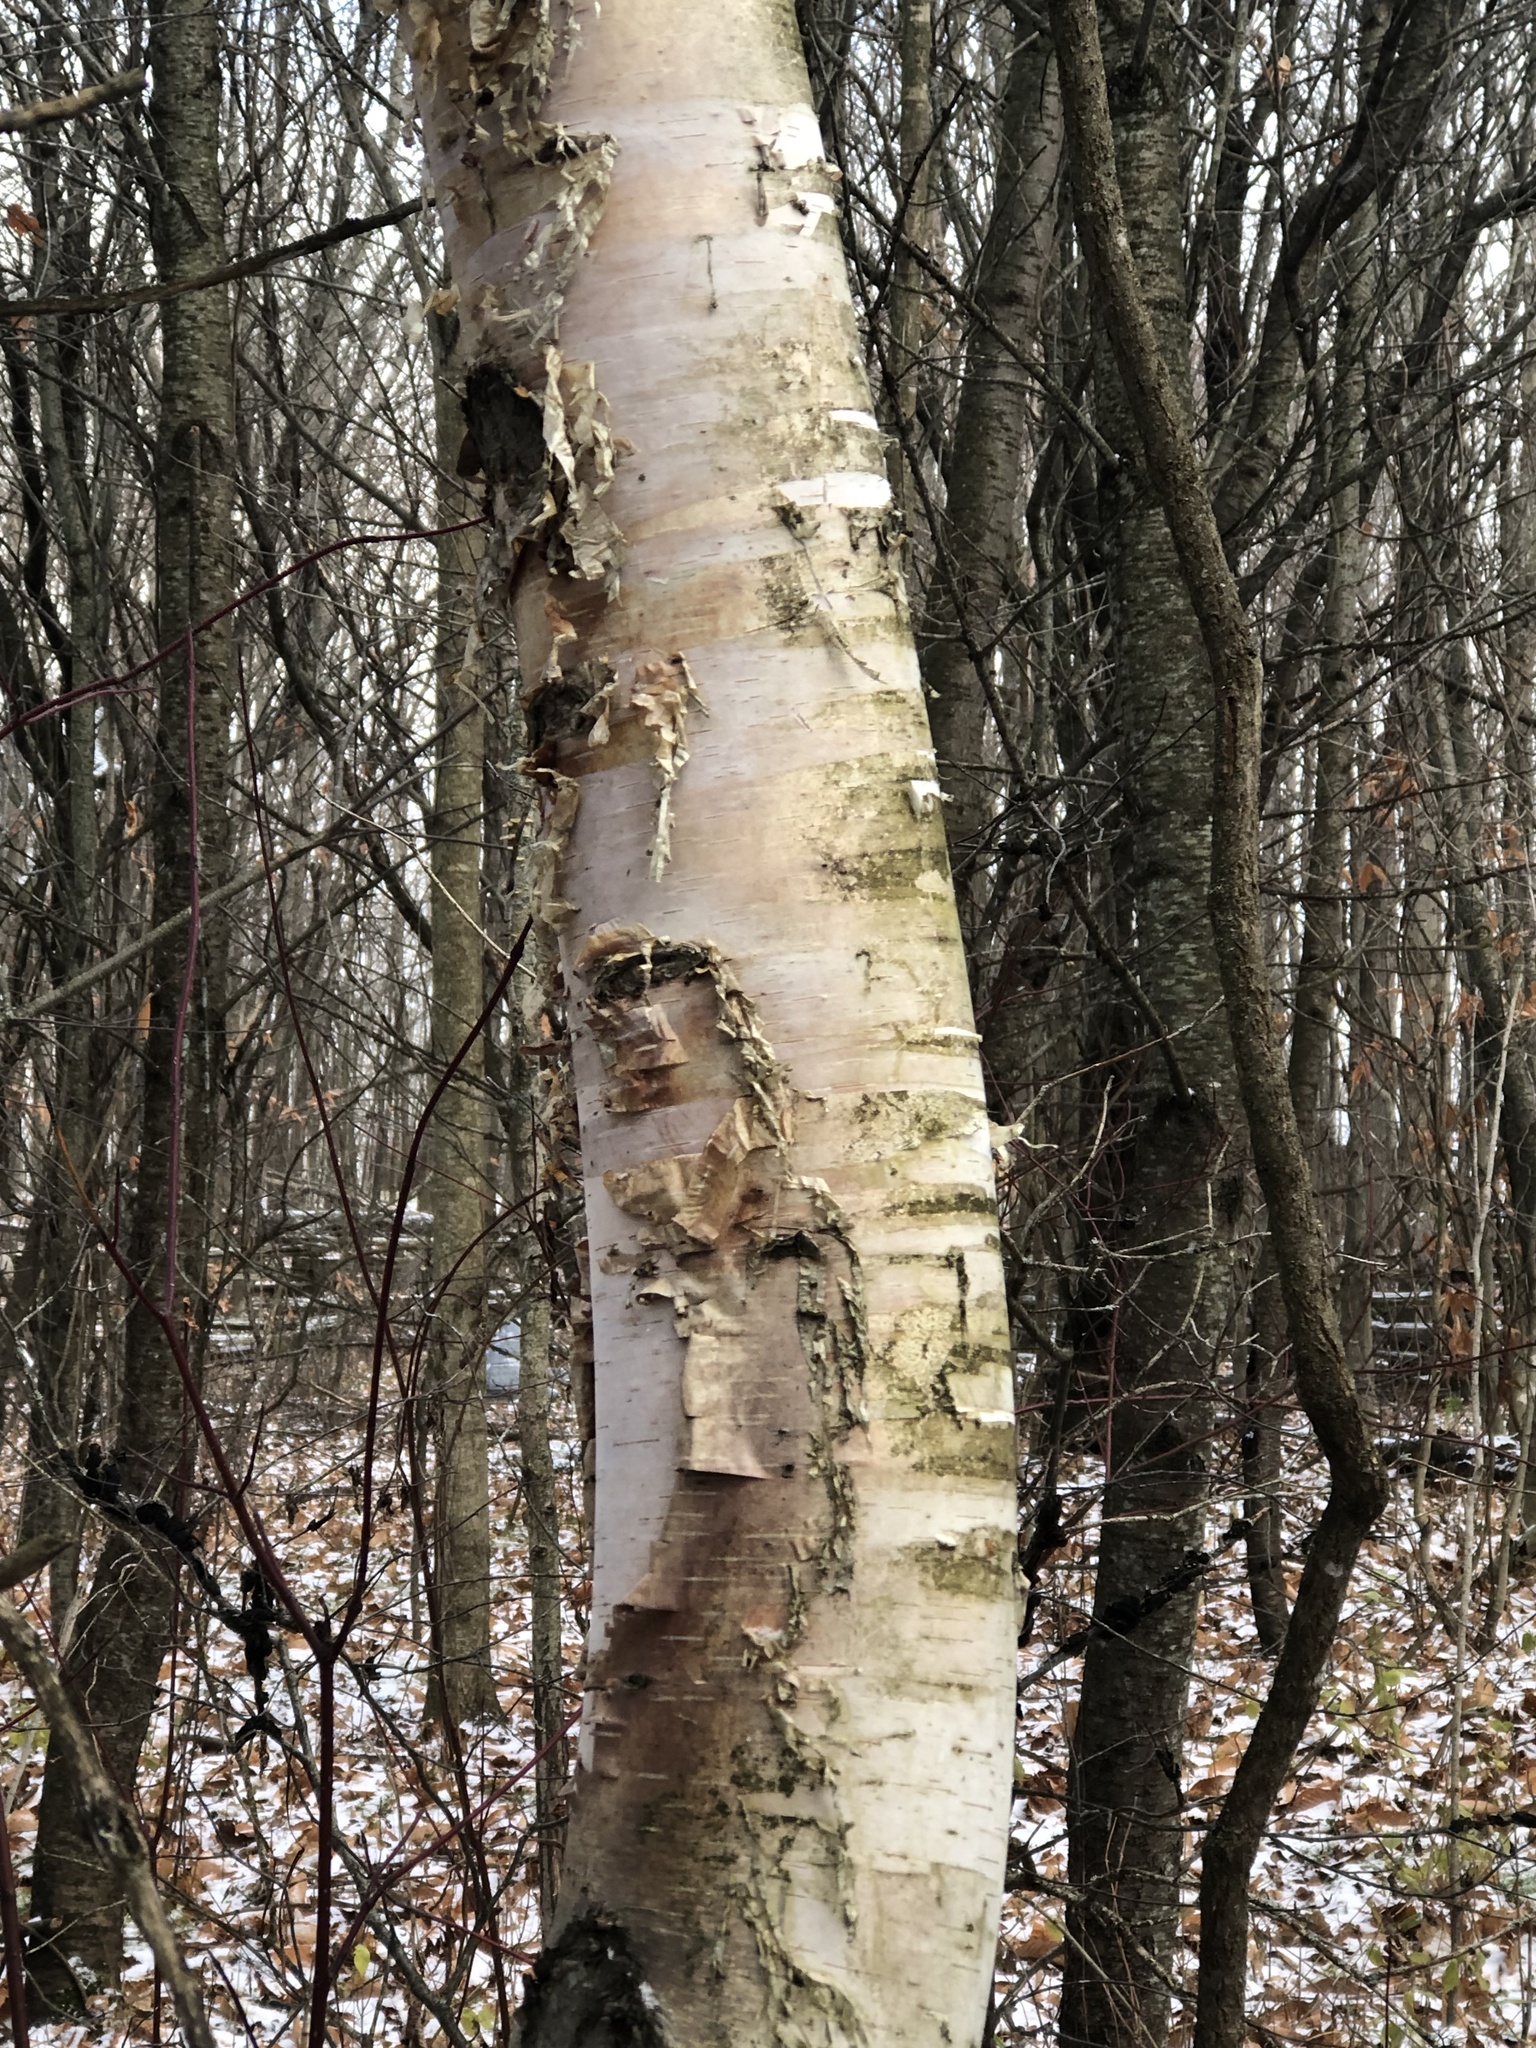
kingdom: Plantae
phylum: Tracheophyta
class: Magnoliopsida
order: Fagales
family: Betulaceae
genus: Betula
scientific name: Betula papyrifera
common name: Paper birch
